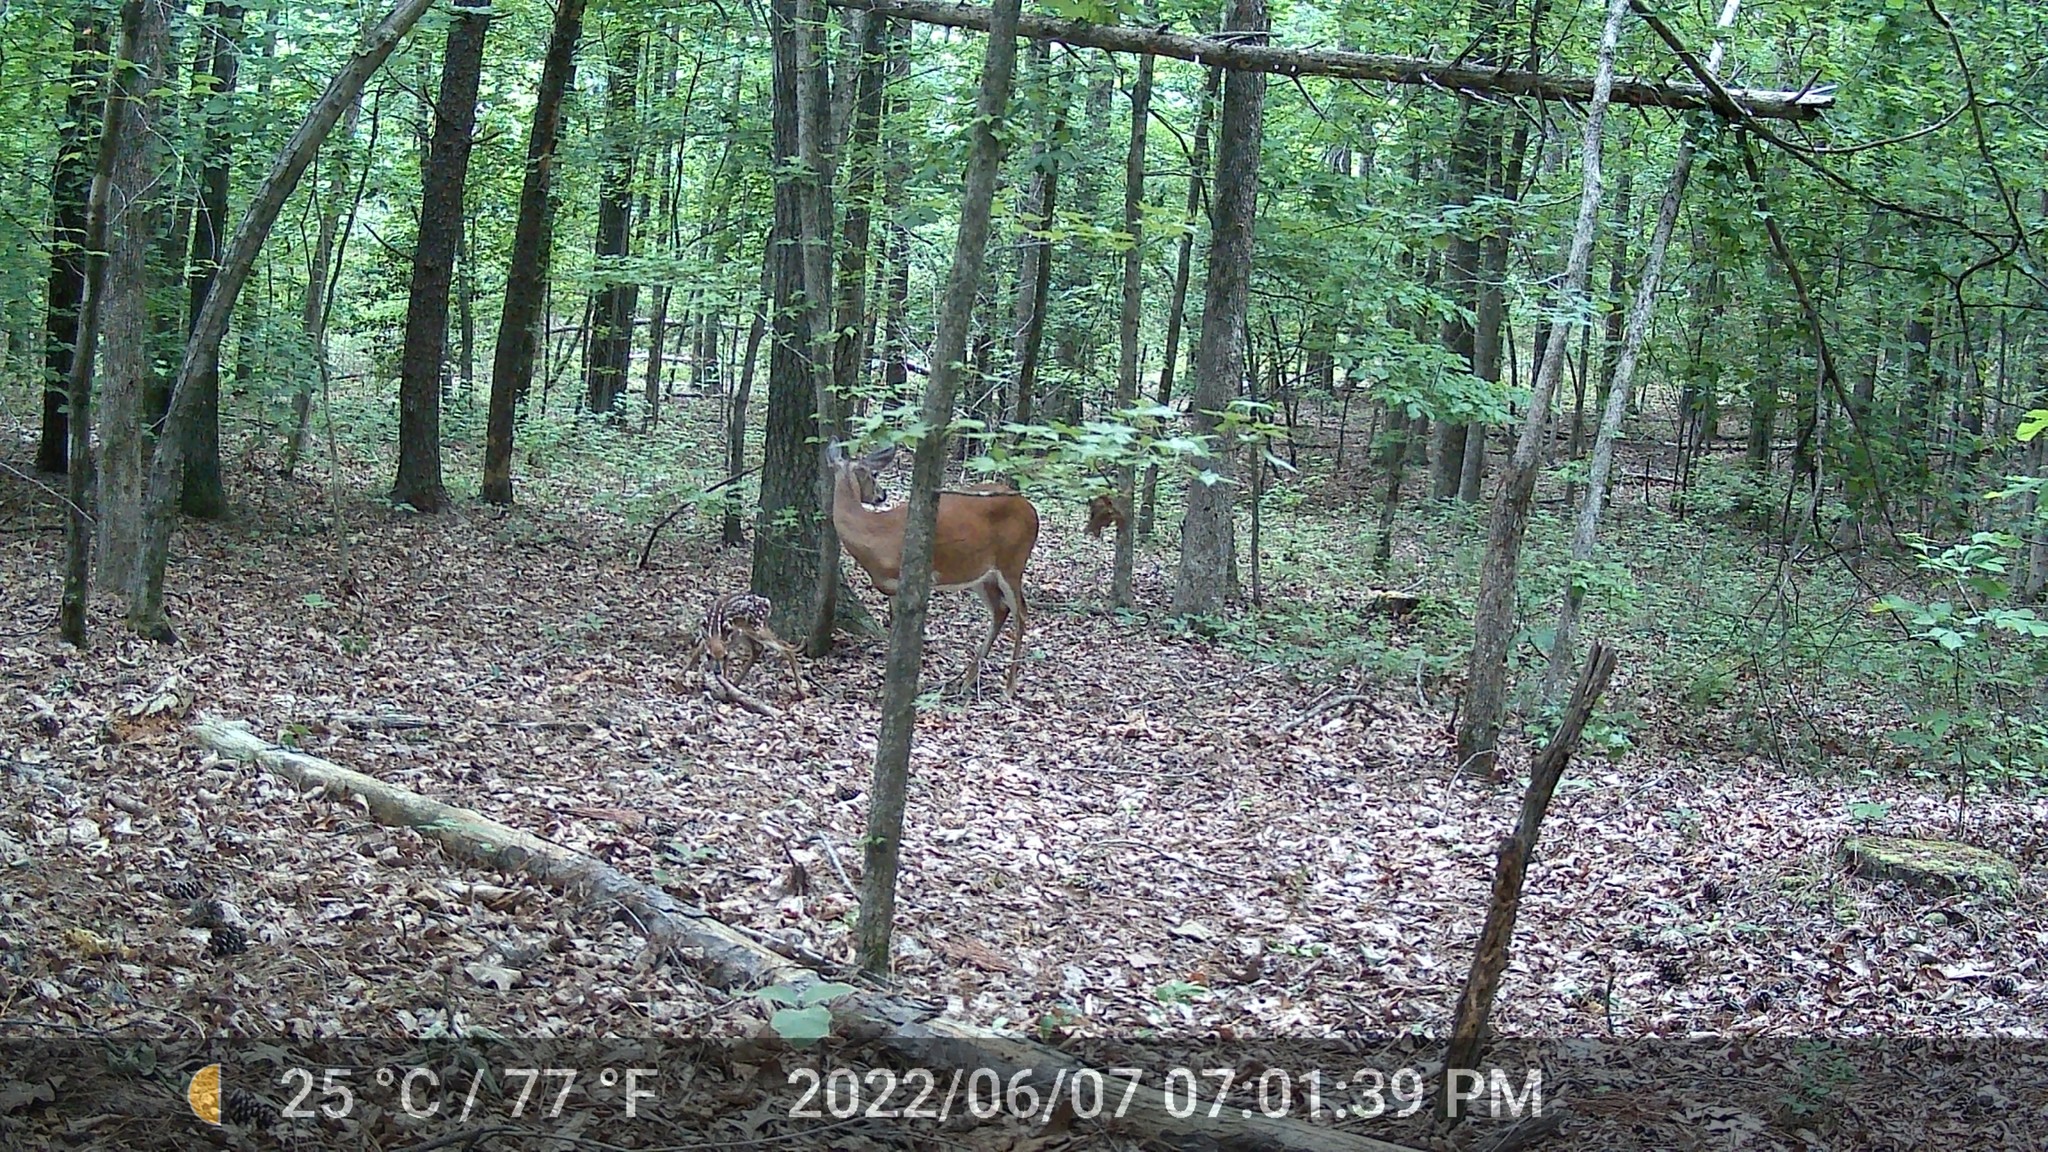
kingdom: Animalia
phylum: Chordata
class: Mammalia
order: Artiodactyla
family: Cervidae
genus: Odocoileus
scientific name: Odocoileus virginianus
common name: White-tailed deer
